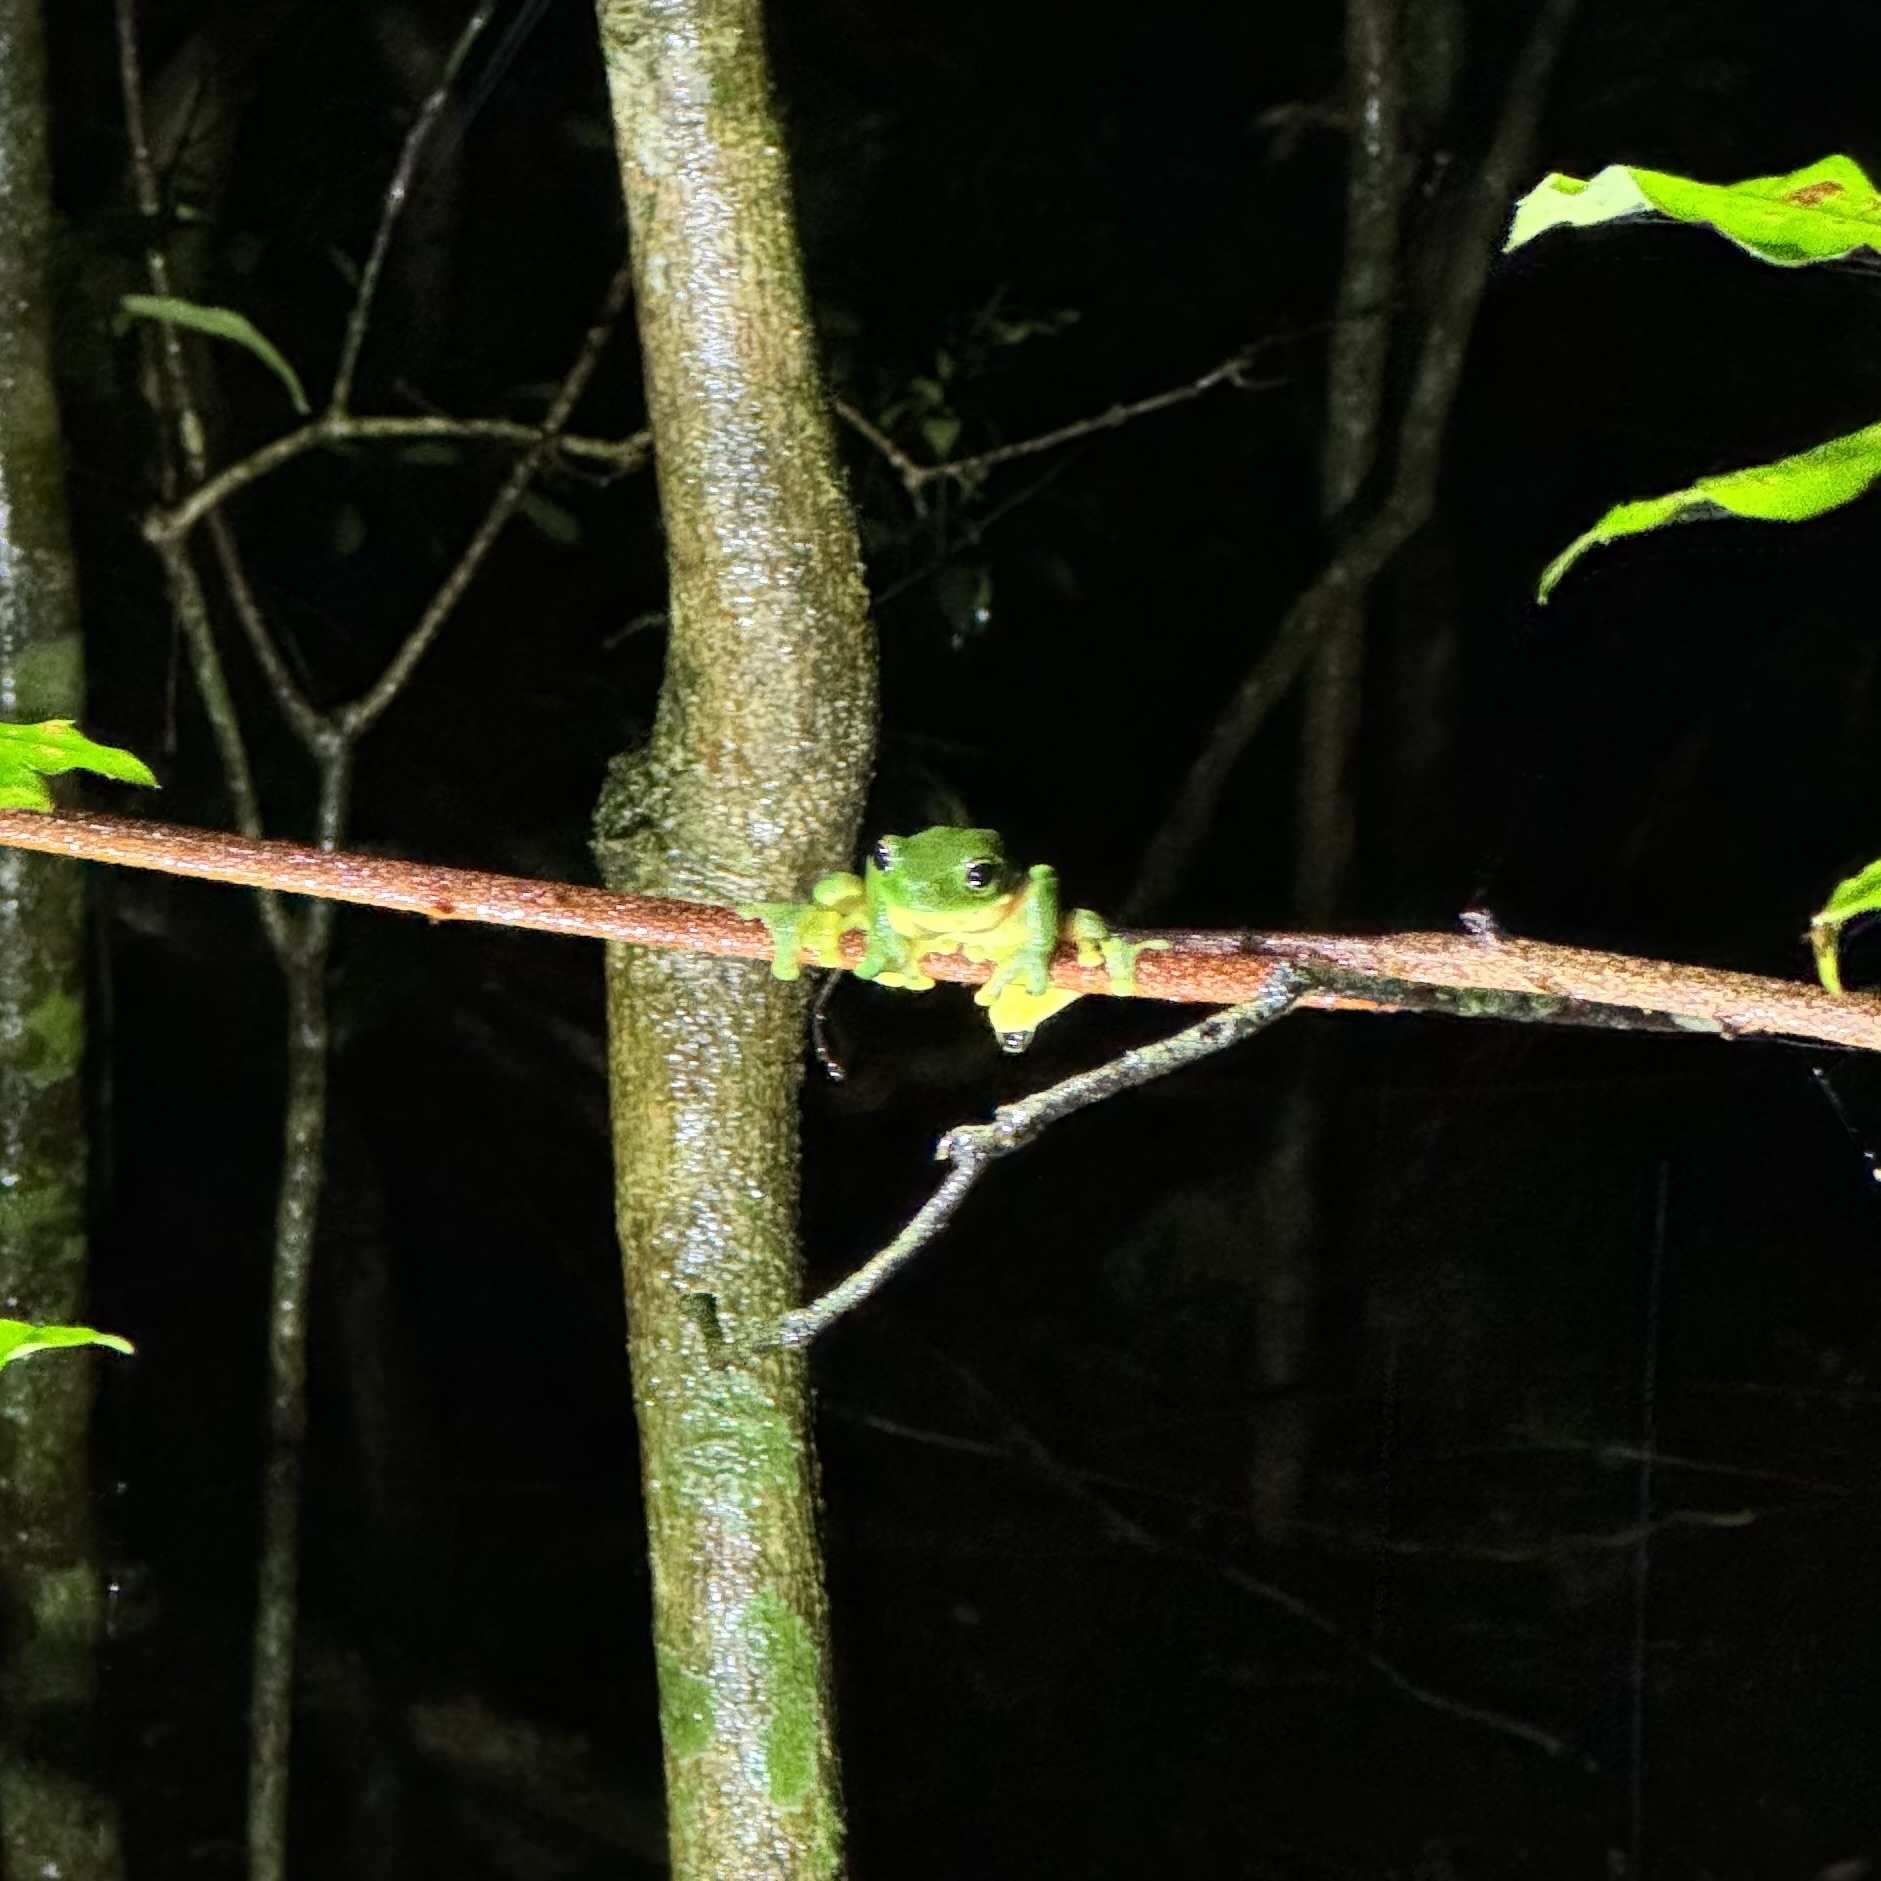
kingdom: Animalia
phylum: Chordata
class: Amphibia
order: Anura
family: Pelodryadidae
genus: Ranoidea
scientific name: Ranoidea chloris
